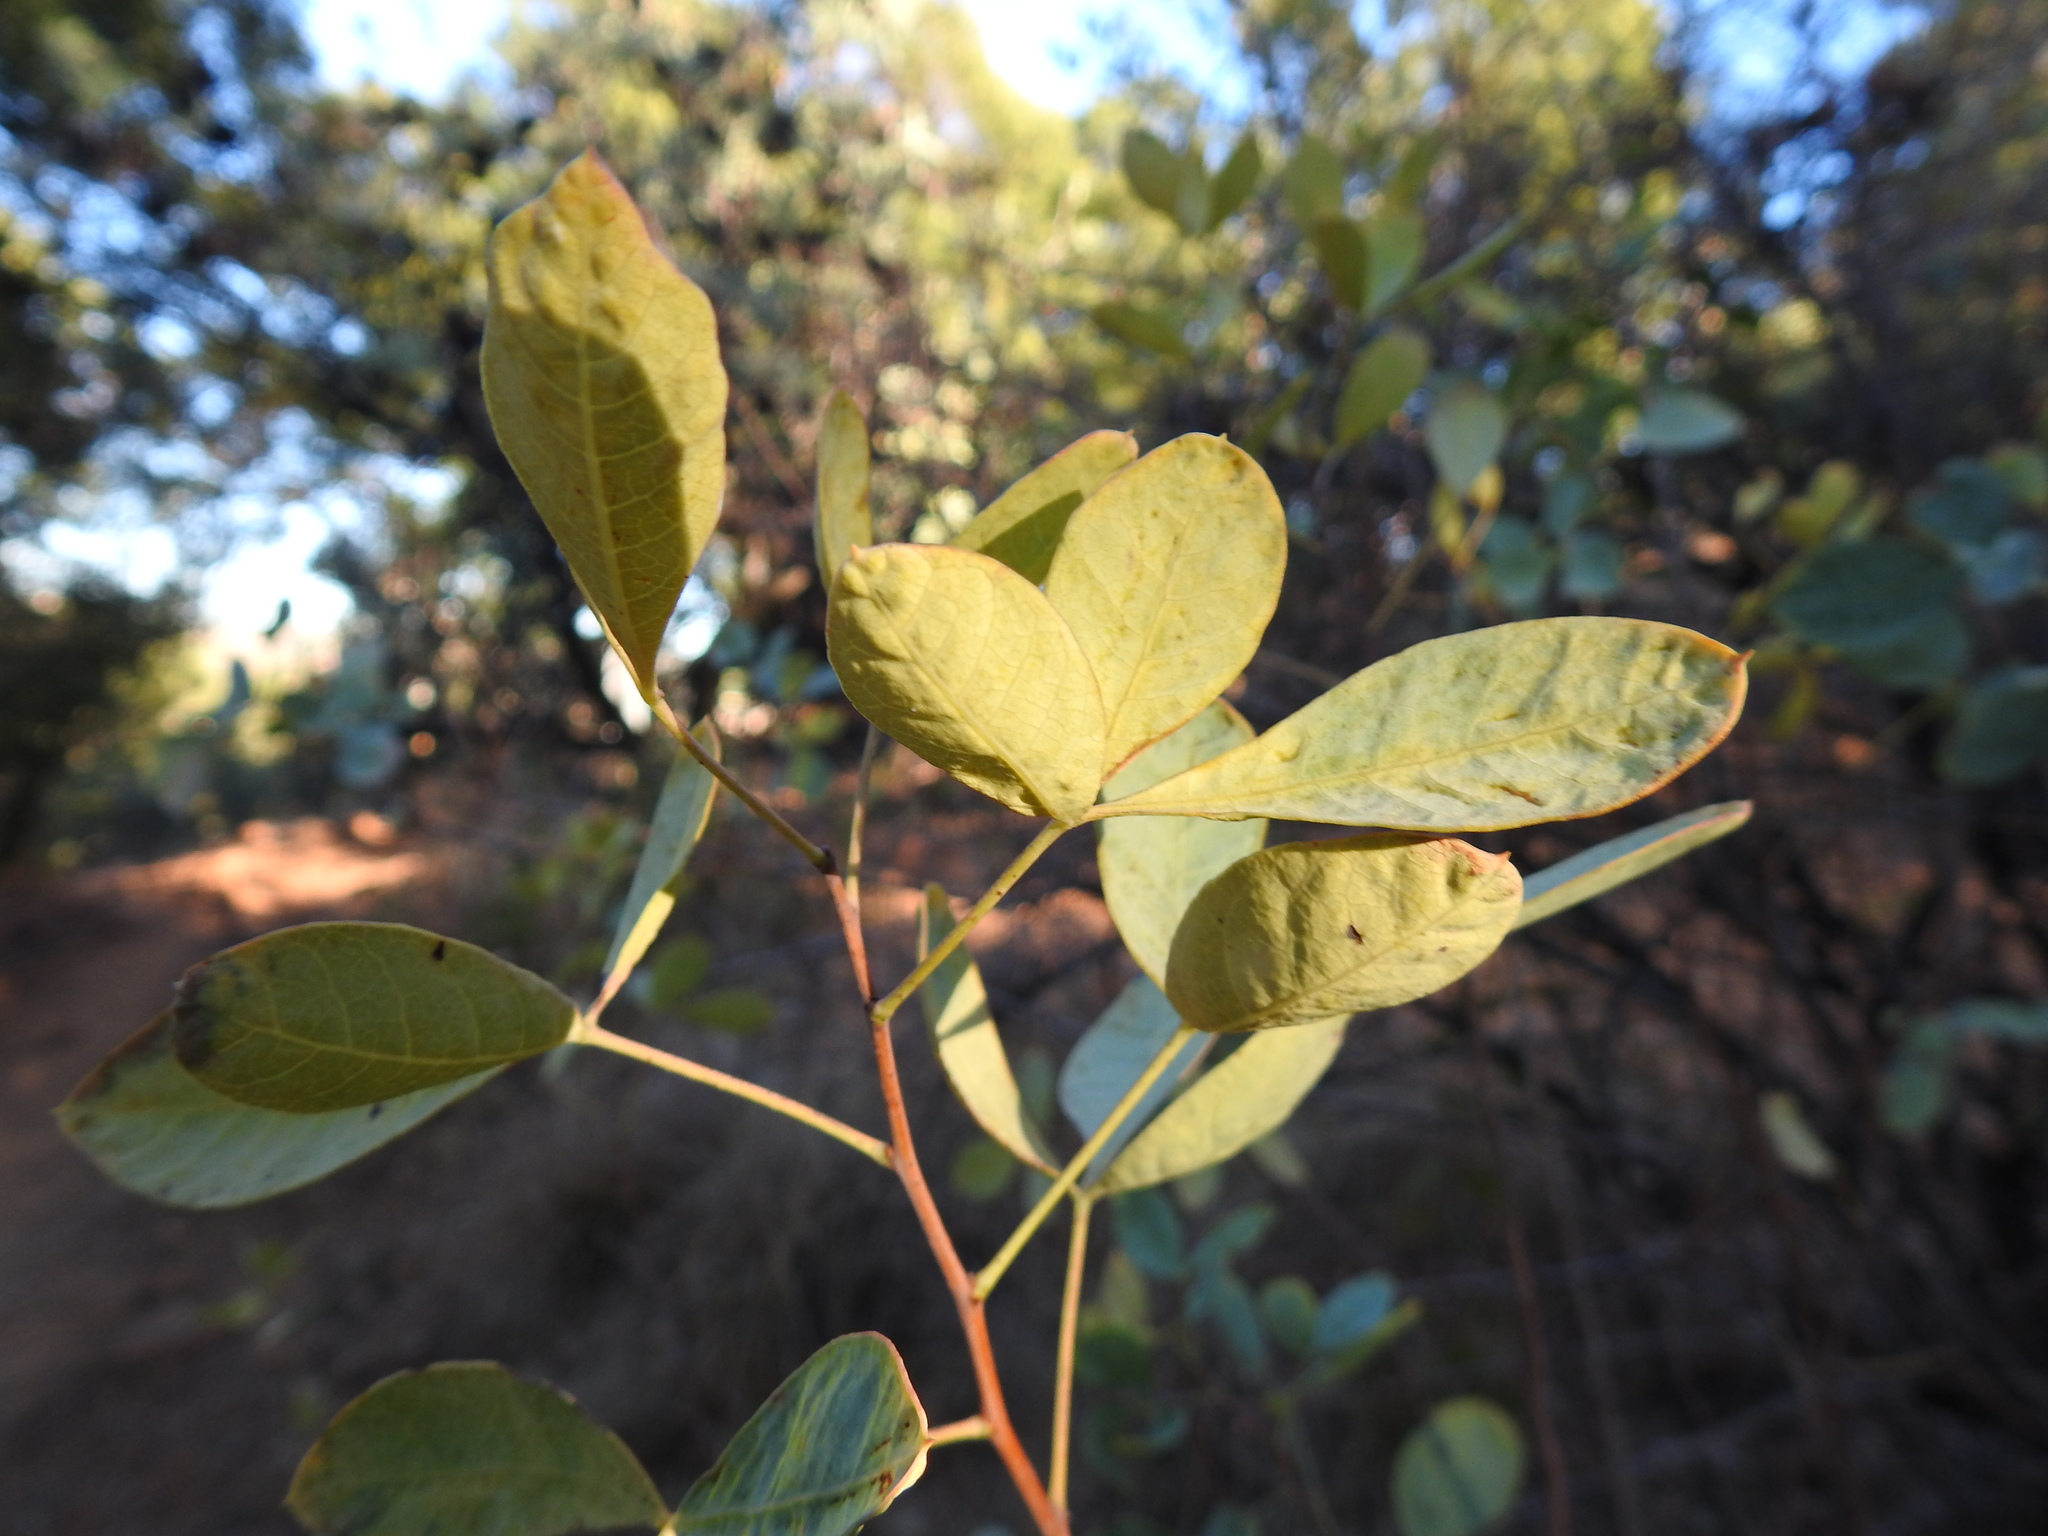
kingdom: Plantae
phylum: Tracheophyta
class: Magnoliopsida
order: Sapindales
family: Anacardiaceae
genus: Searsia
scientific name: Searsia zeyheri
